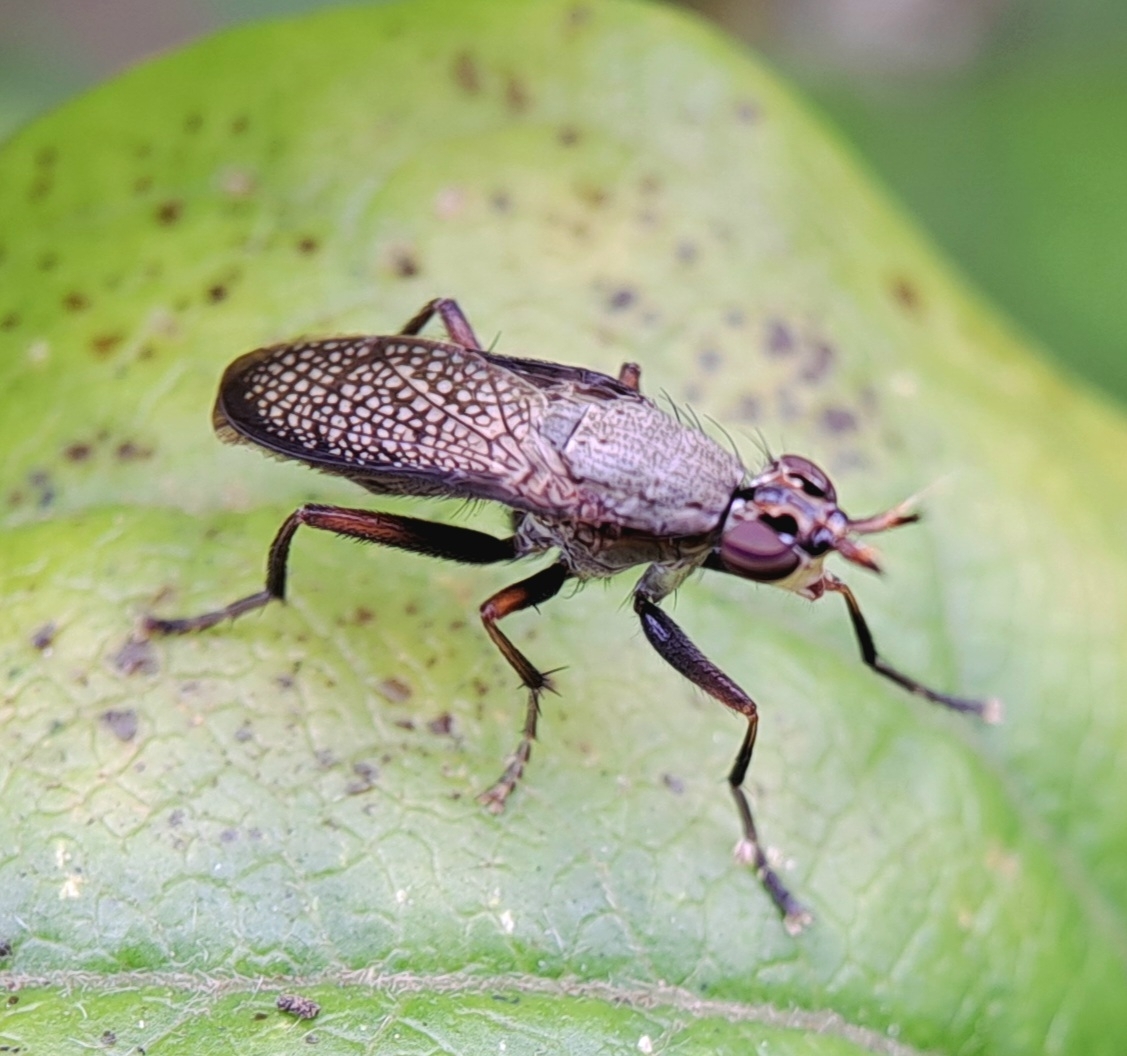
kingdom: Animalia
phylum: Arthropoda
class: Insecta
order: Diptera
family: Sciomyzidae
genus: Coremacera
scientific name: Coremacera marginata
